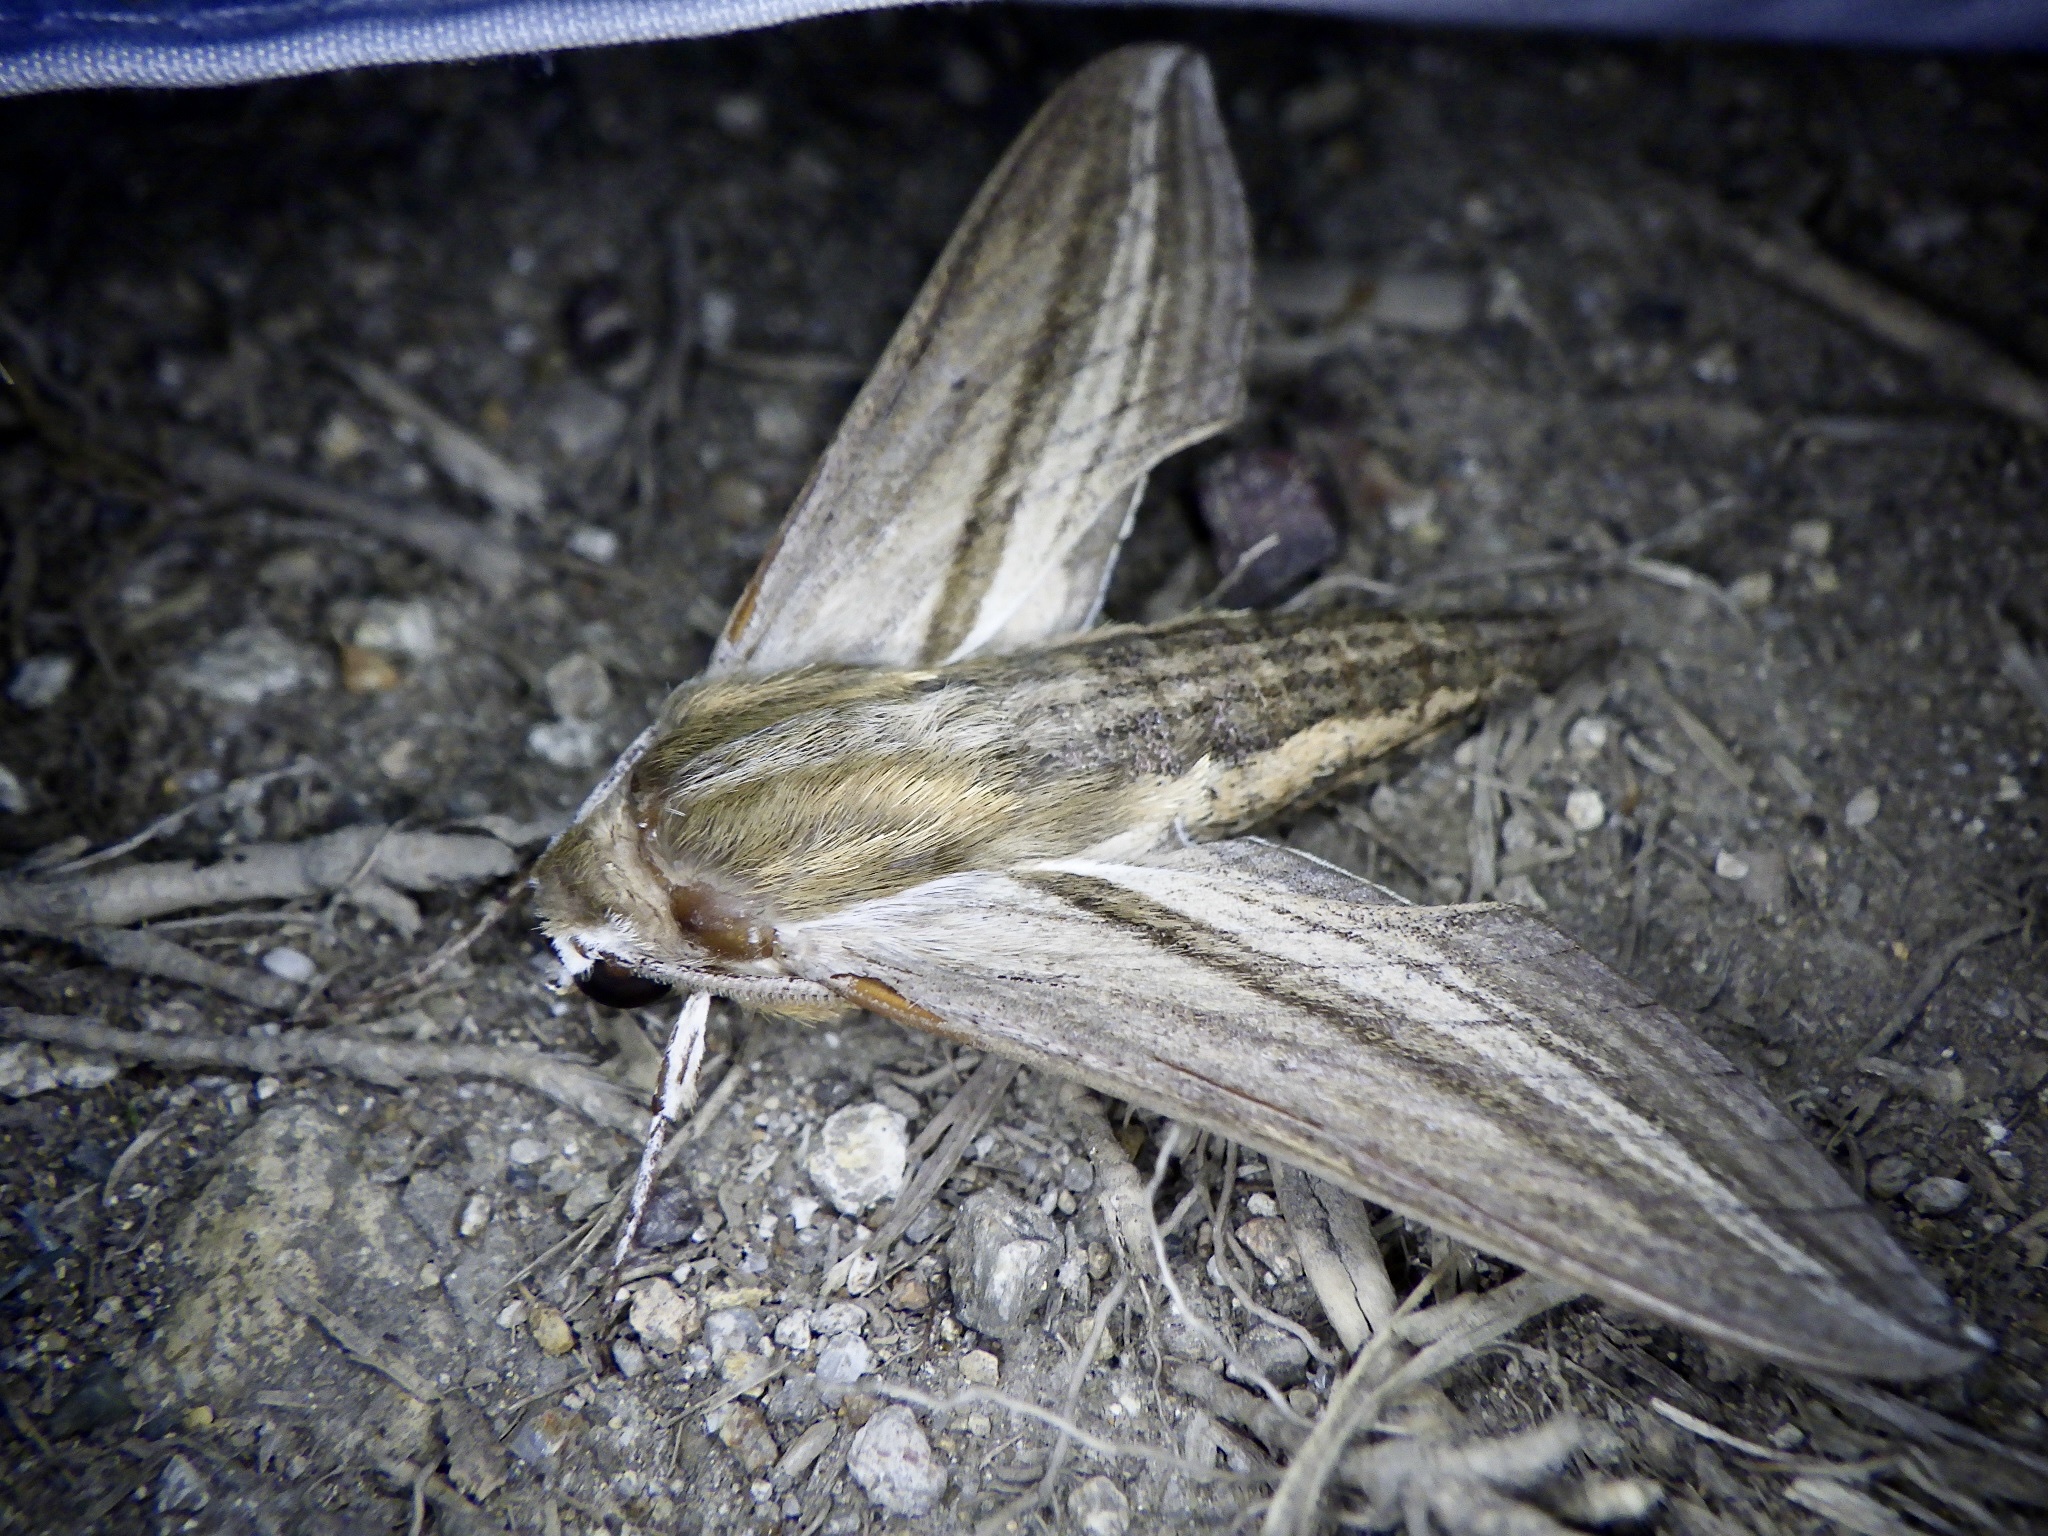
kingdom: Animalia
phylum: Arthropoda
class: Insecta
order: Lepidoptera
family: Sphingidae
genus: Theretra
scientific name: Theretra oldenlandiae
